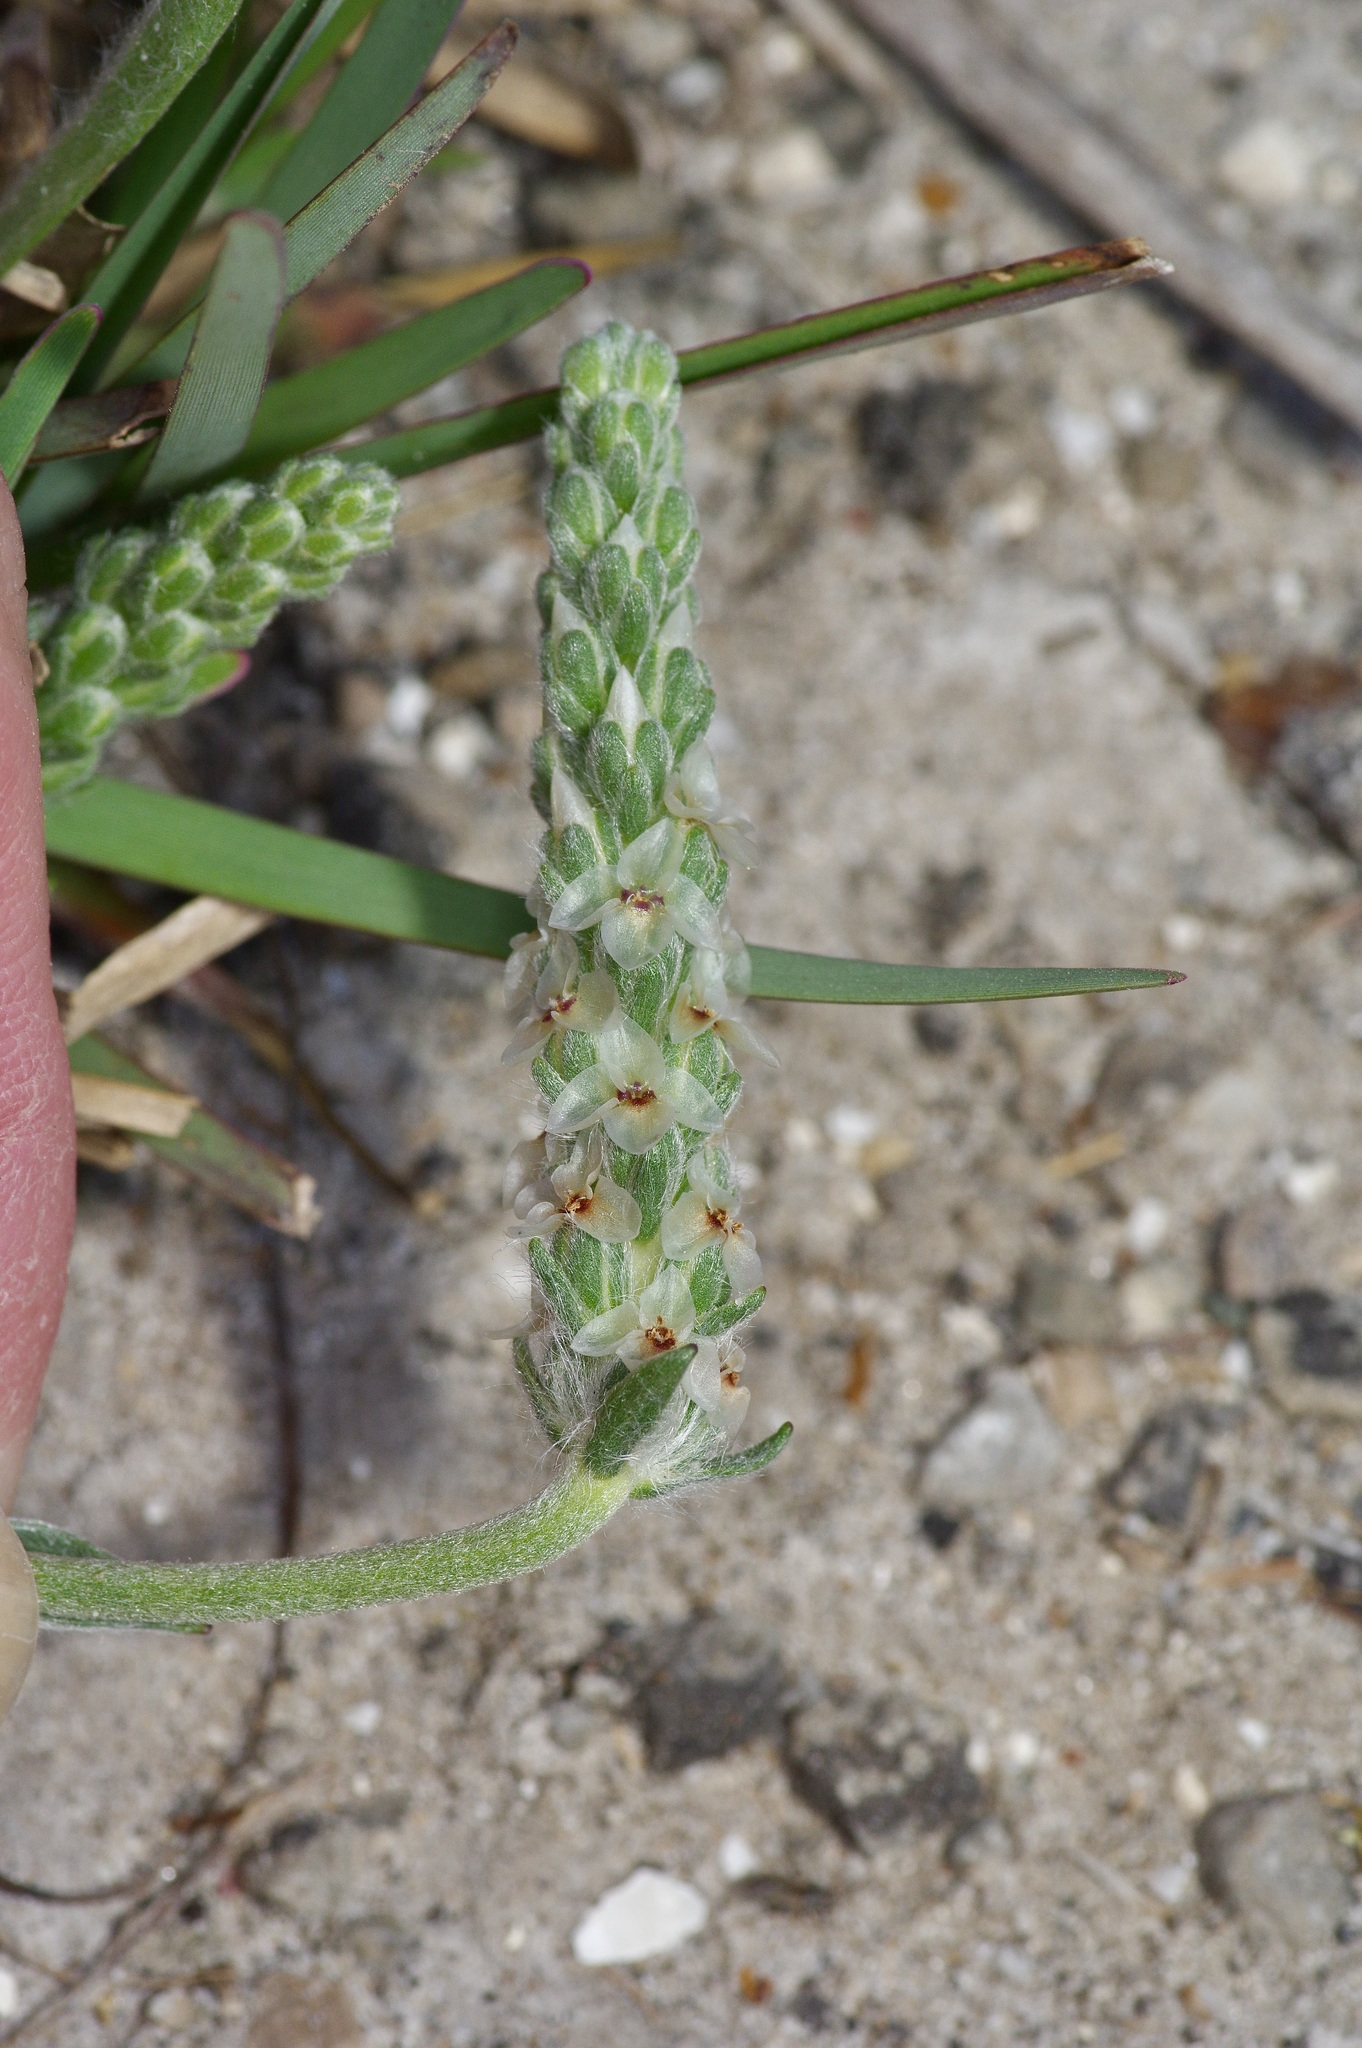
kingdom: Plantae
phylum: Tracheophyta
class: Magnoliopsida
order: Lamiales
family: Plantaginaceae
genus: Plantago
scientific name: Plantago helleri
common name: Heller's plantain
